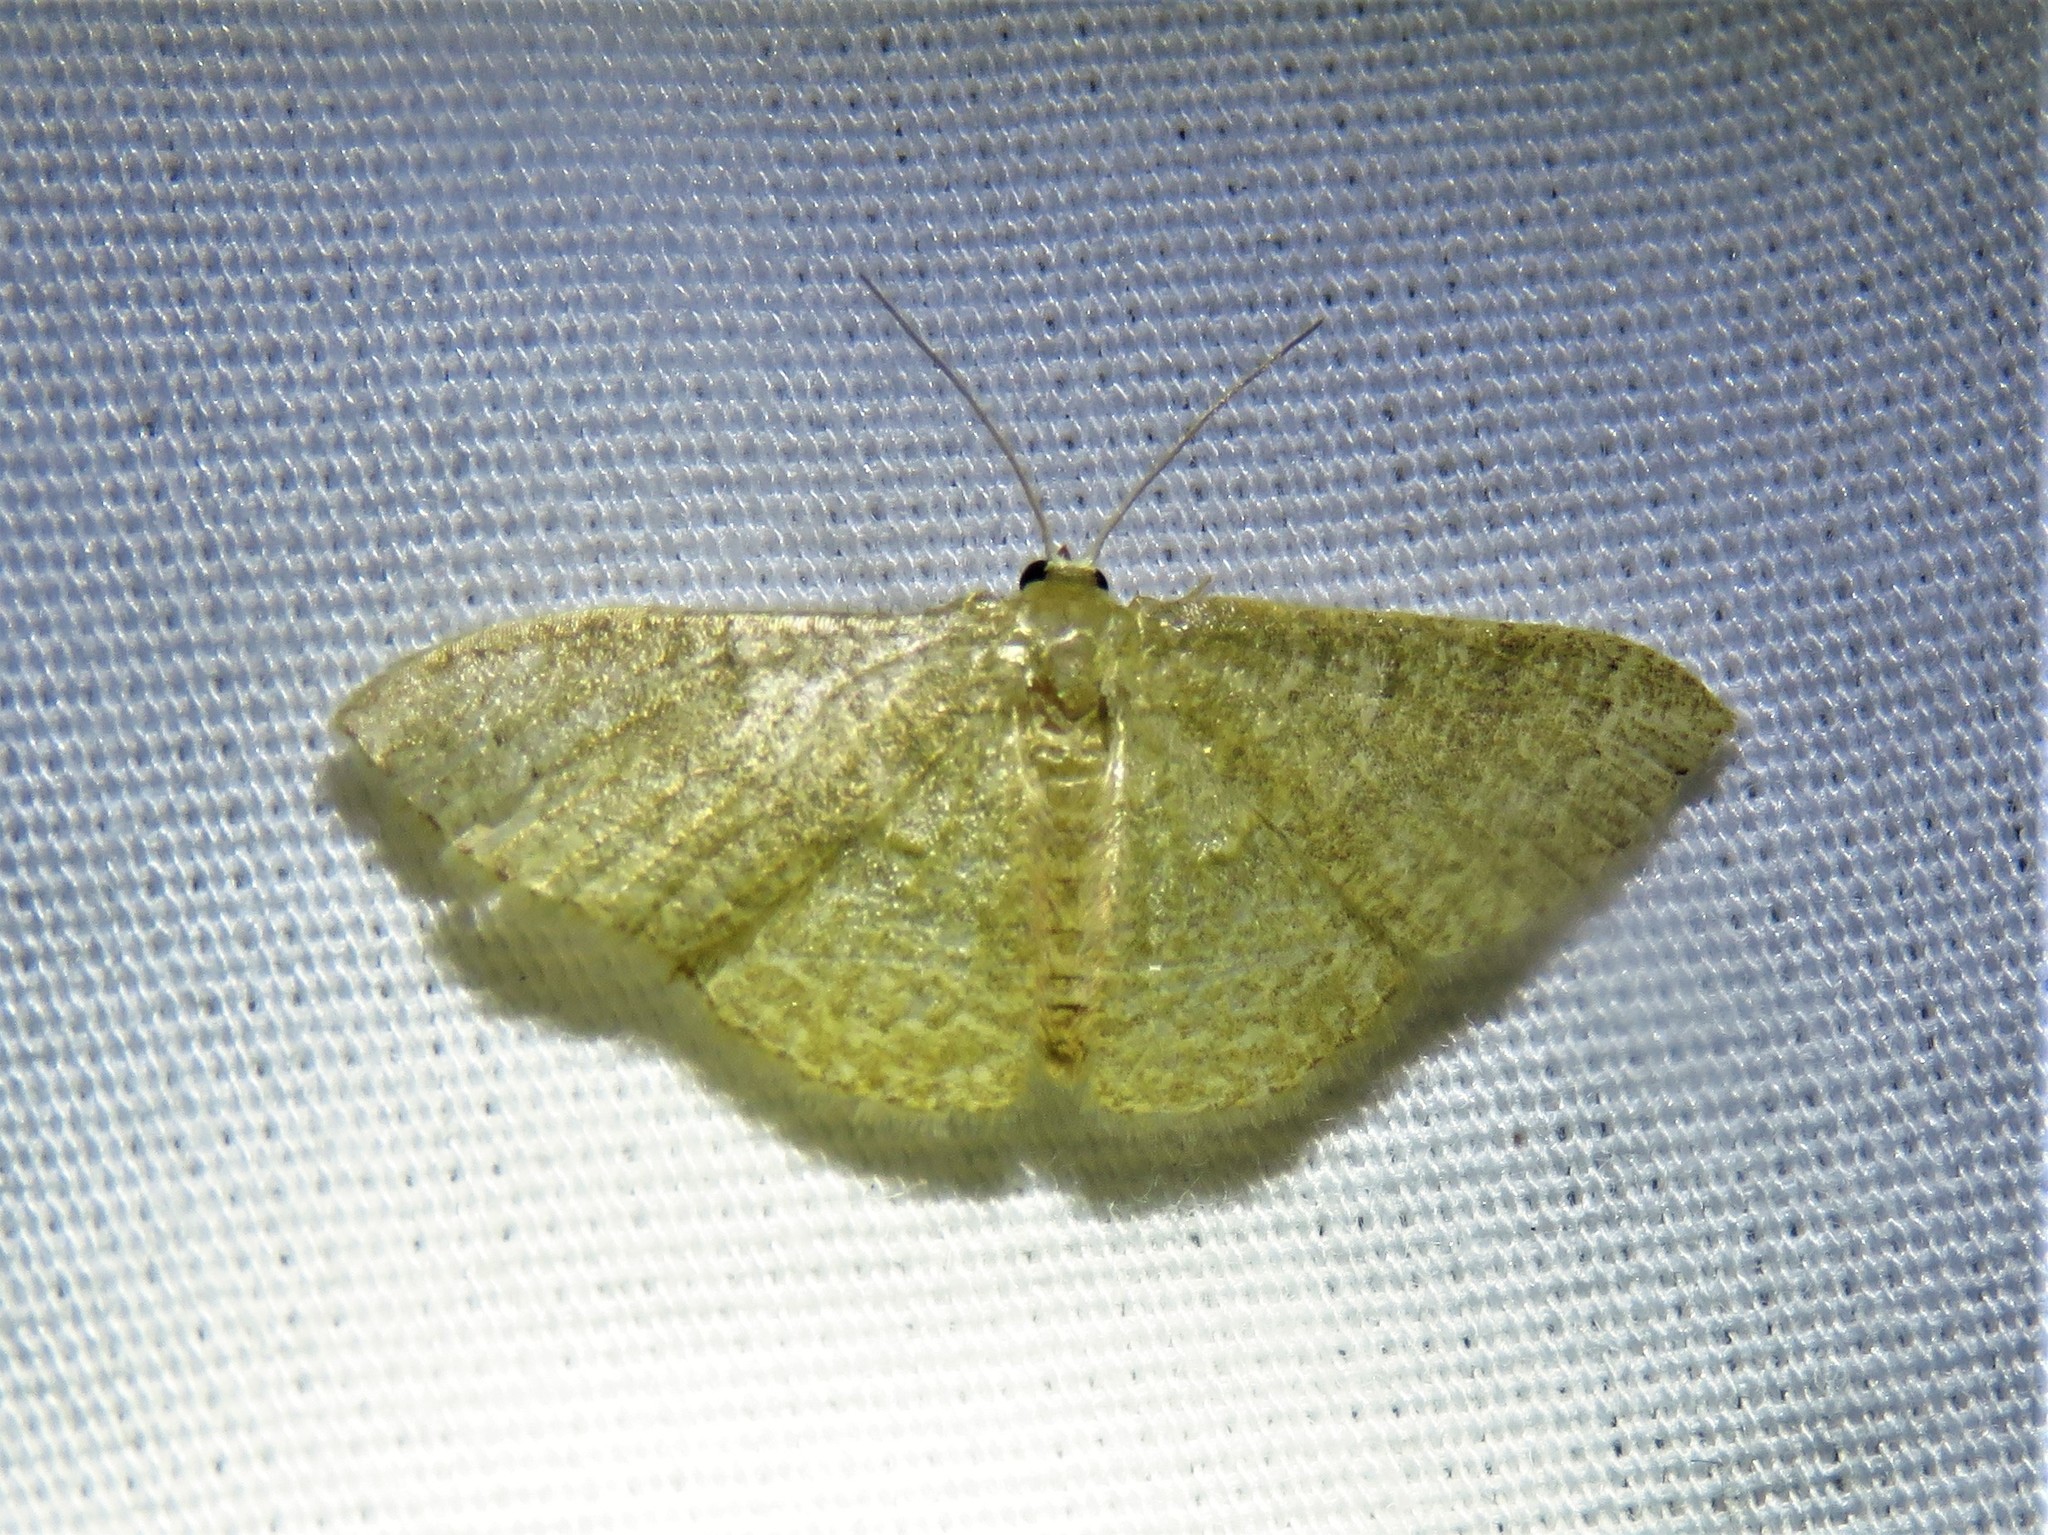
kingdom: Animalia
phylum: Arthropoda
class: Insecta
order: Lepidoptera
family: Geometridae
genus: Pleuroprucha
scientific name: Pleuroprucha insulsaria
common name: Common tan wave
